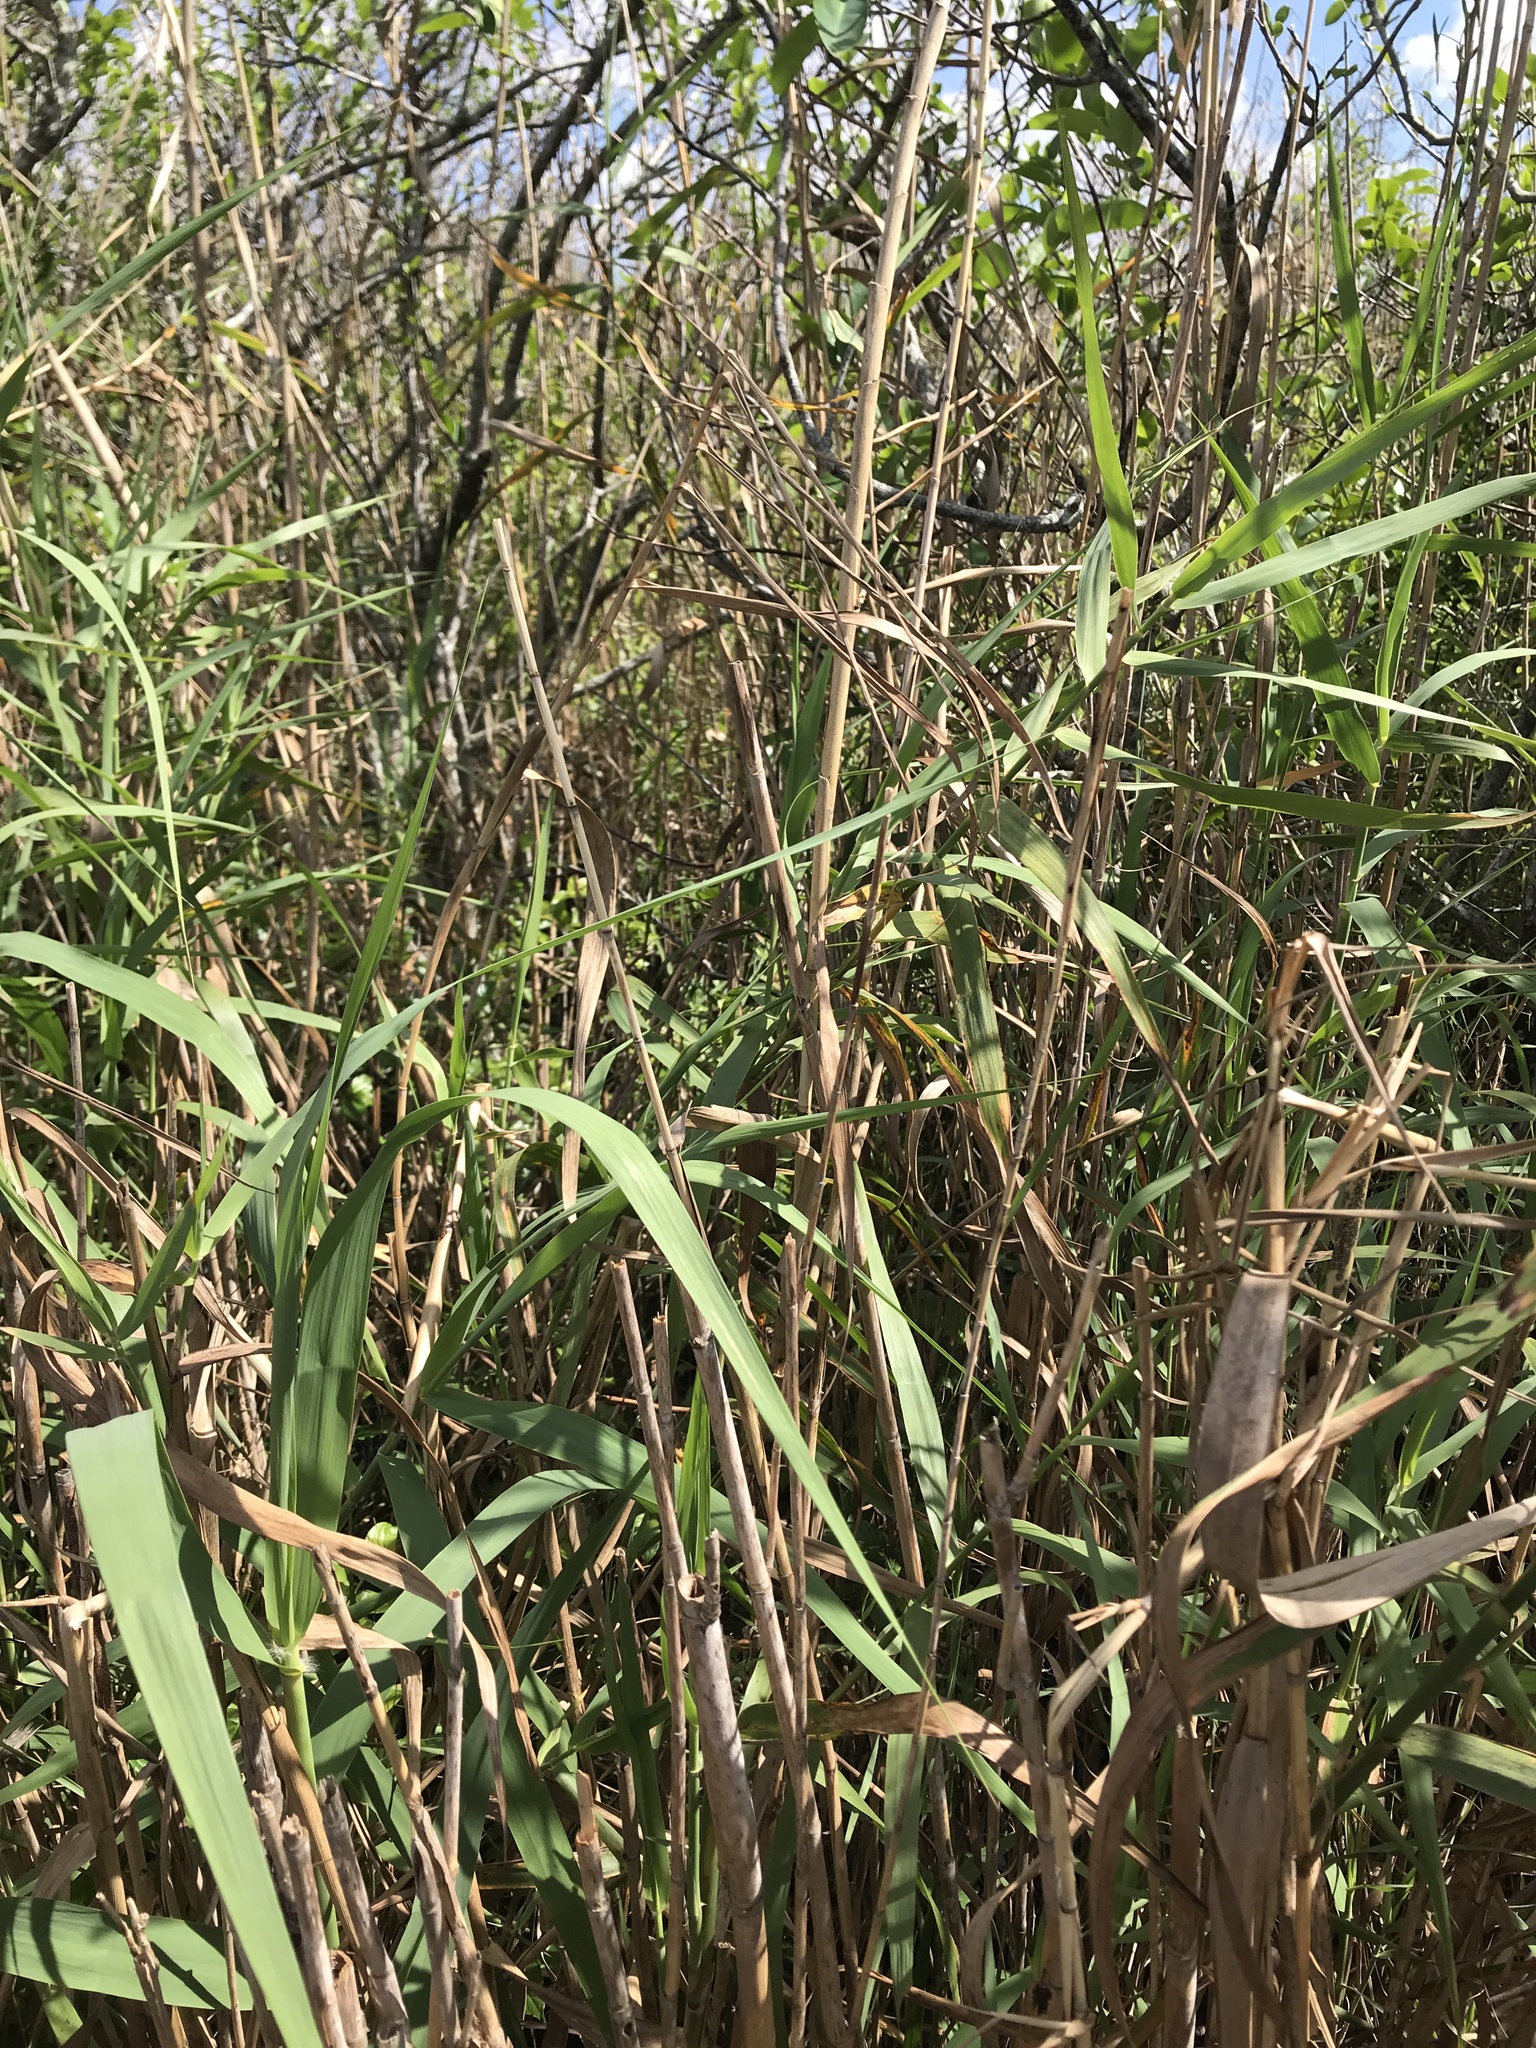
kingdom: Plantae
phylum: Tracheophyta
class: Liliopsida
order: Poales
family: Poaceae
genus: Phragmites
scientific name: Phragmites australis
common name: Common reed
